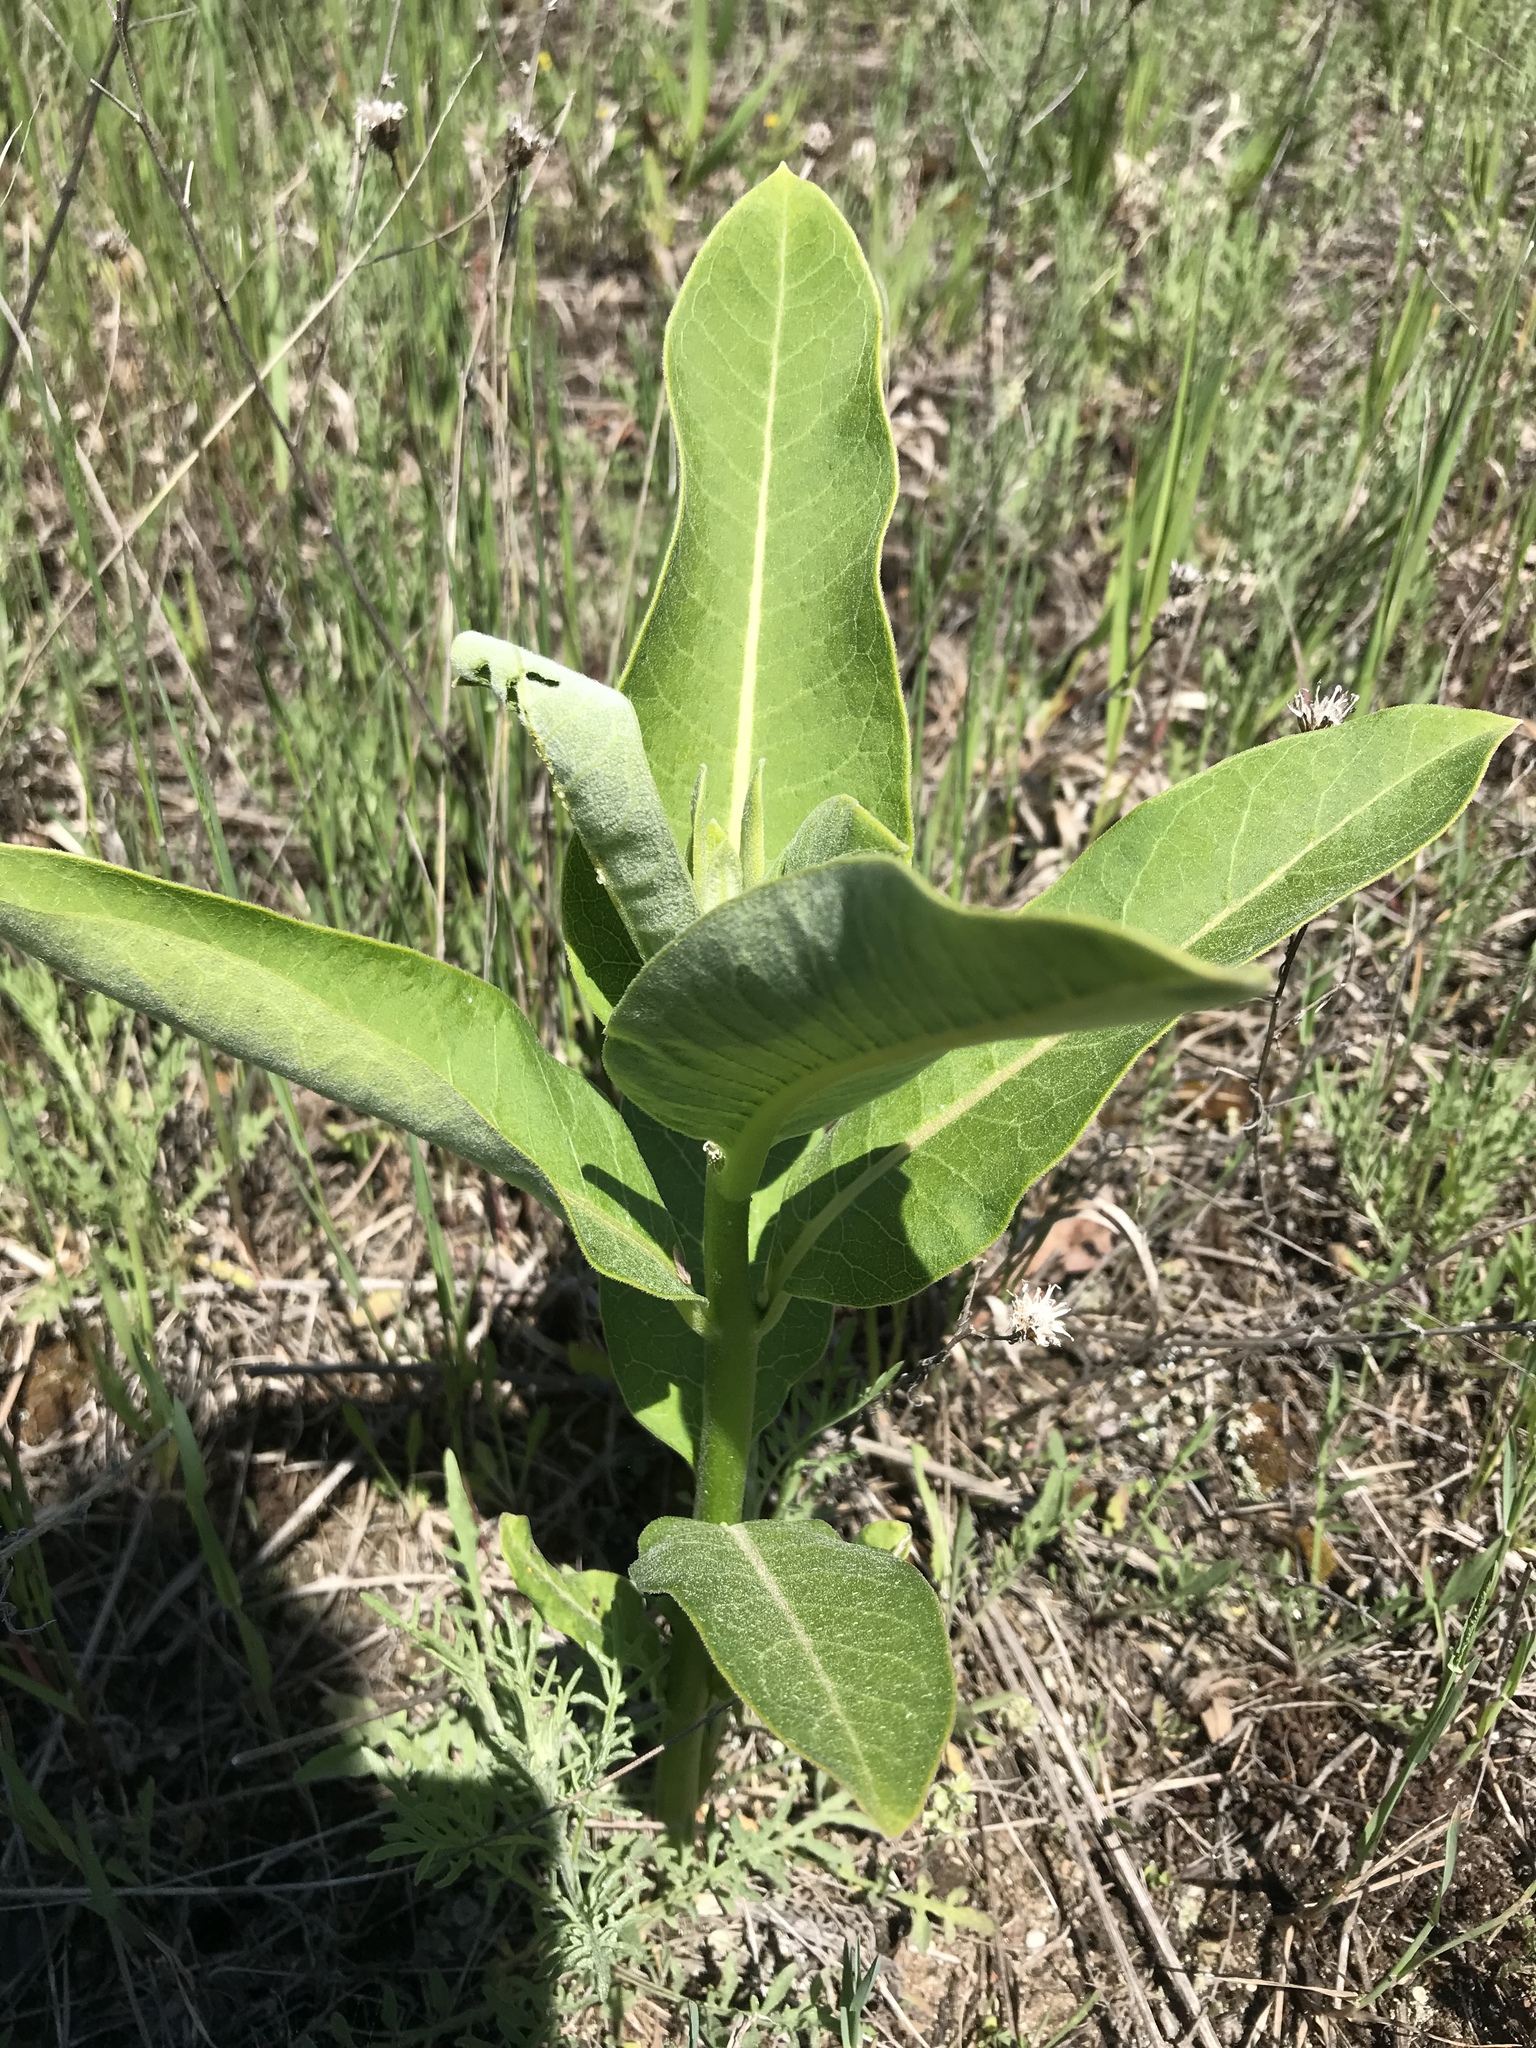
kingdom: Plantae
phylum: Tracheophyta
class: Magnoliopsida
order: Gentianales
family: Apocynaceae
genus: Asclepias
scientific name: Asclepias syriaca
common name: Common milkweed
